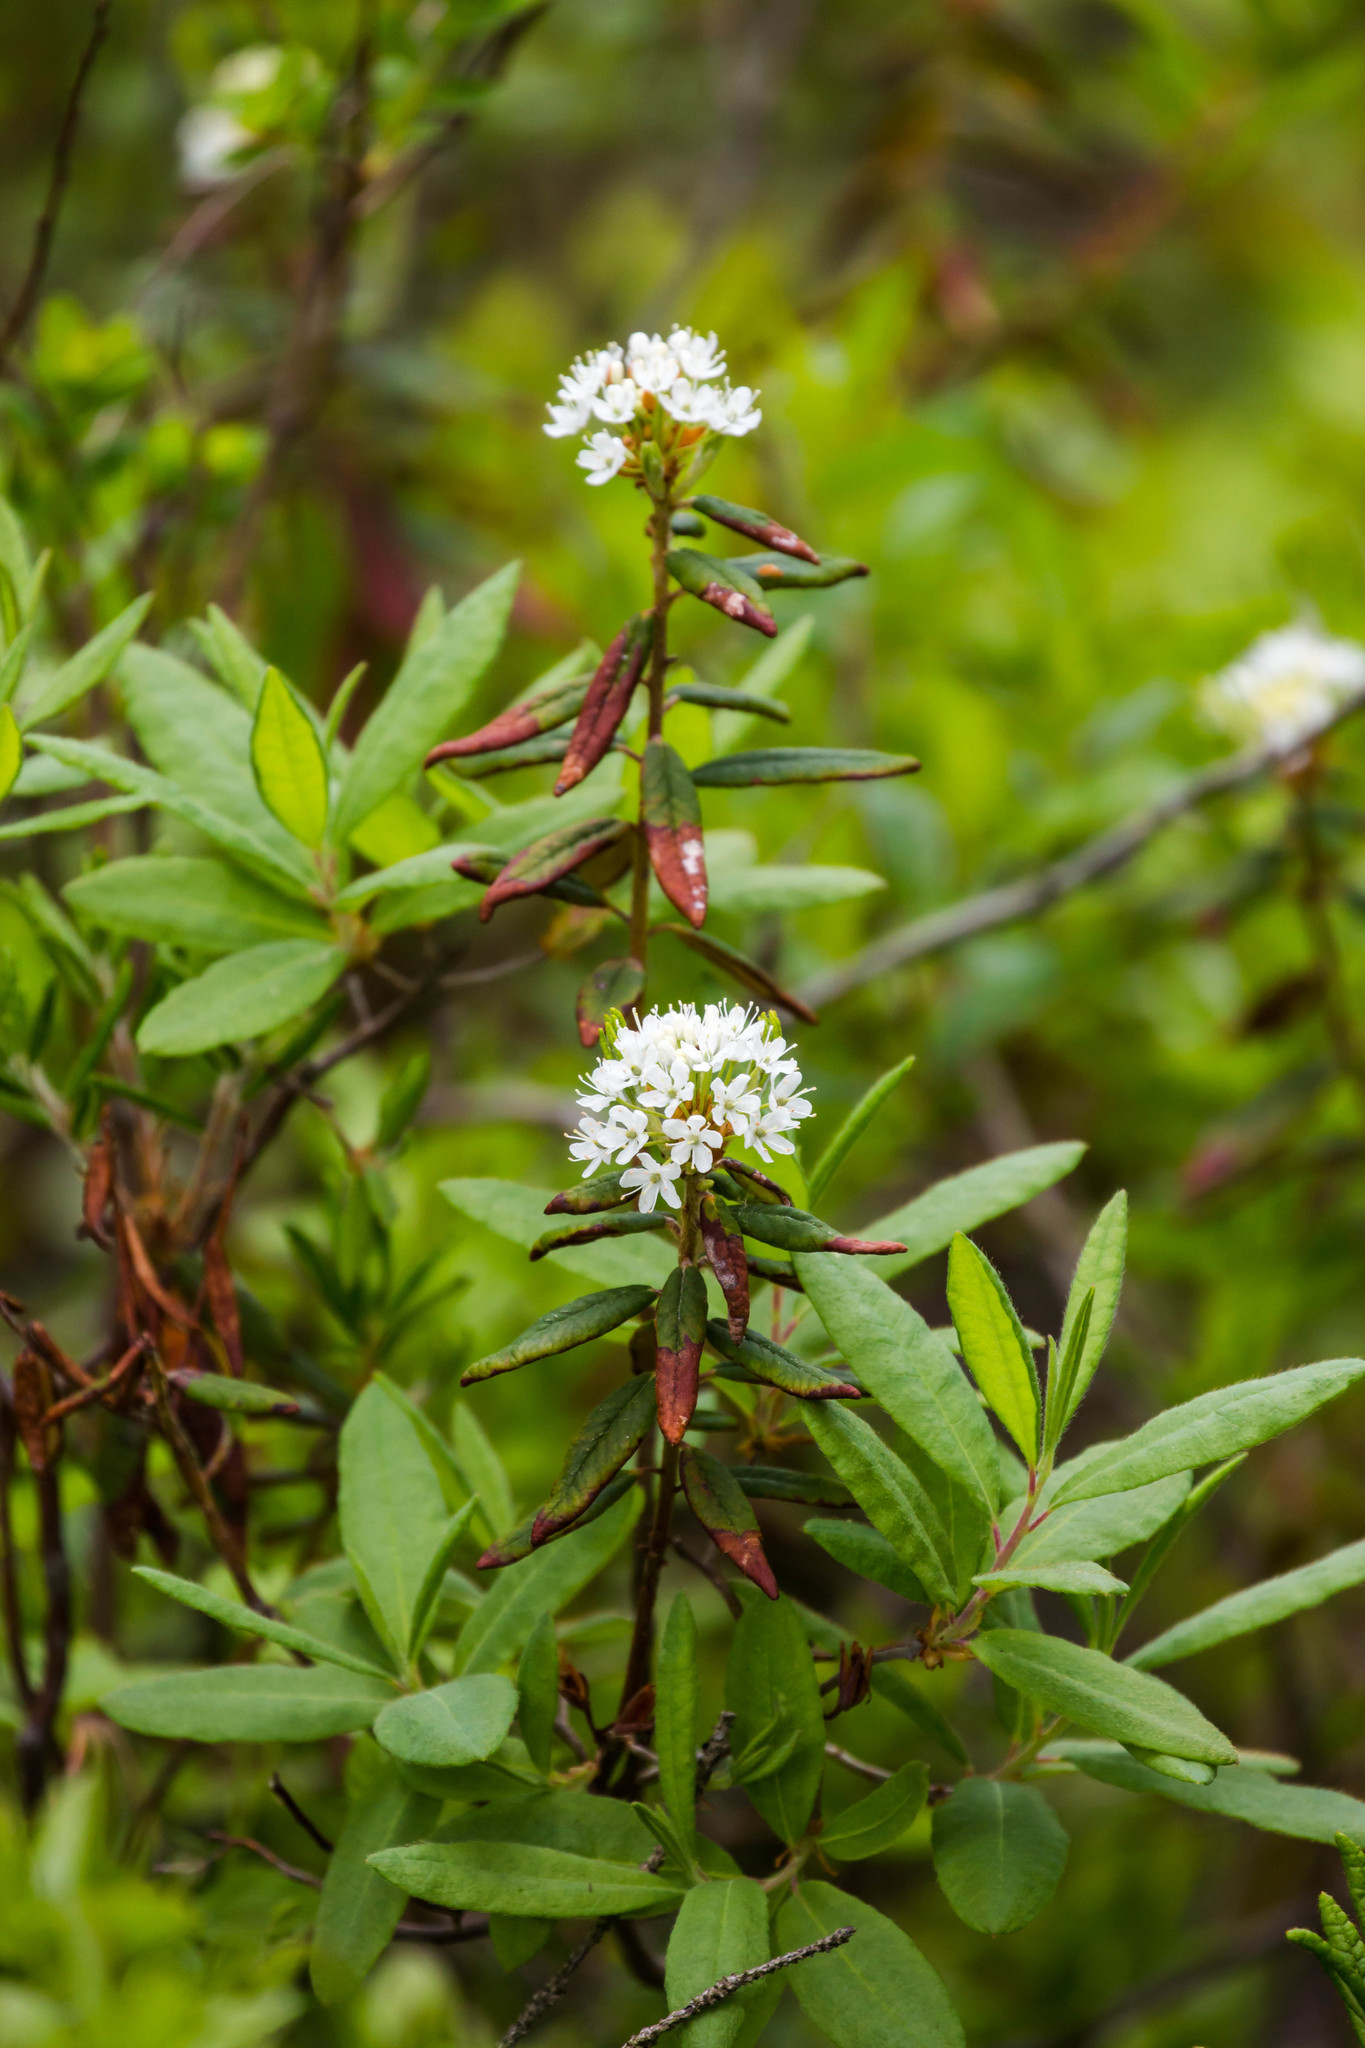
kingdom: Plantae
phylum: Tracheophyta
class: Magnoliopsida
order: Ericales
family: Ericaceae
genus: Rhododendron
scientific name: Rhododendron groenlandicum
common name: Bog labrador tea
